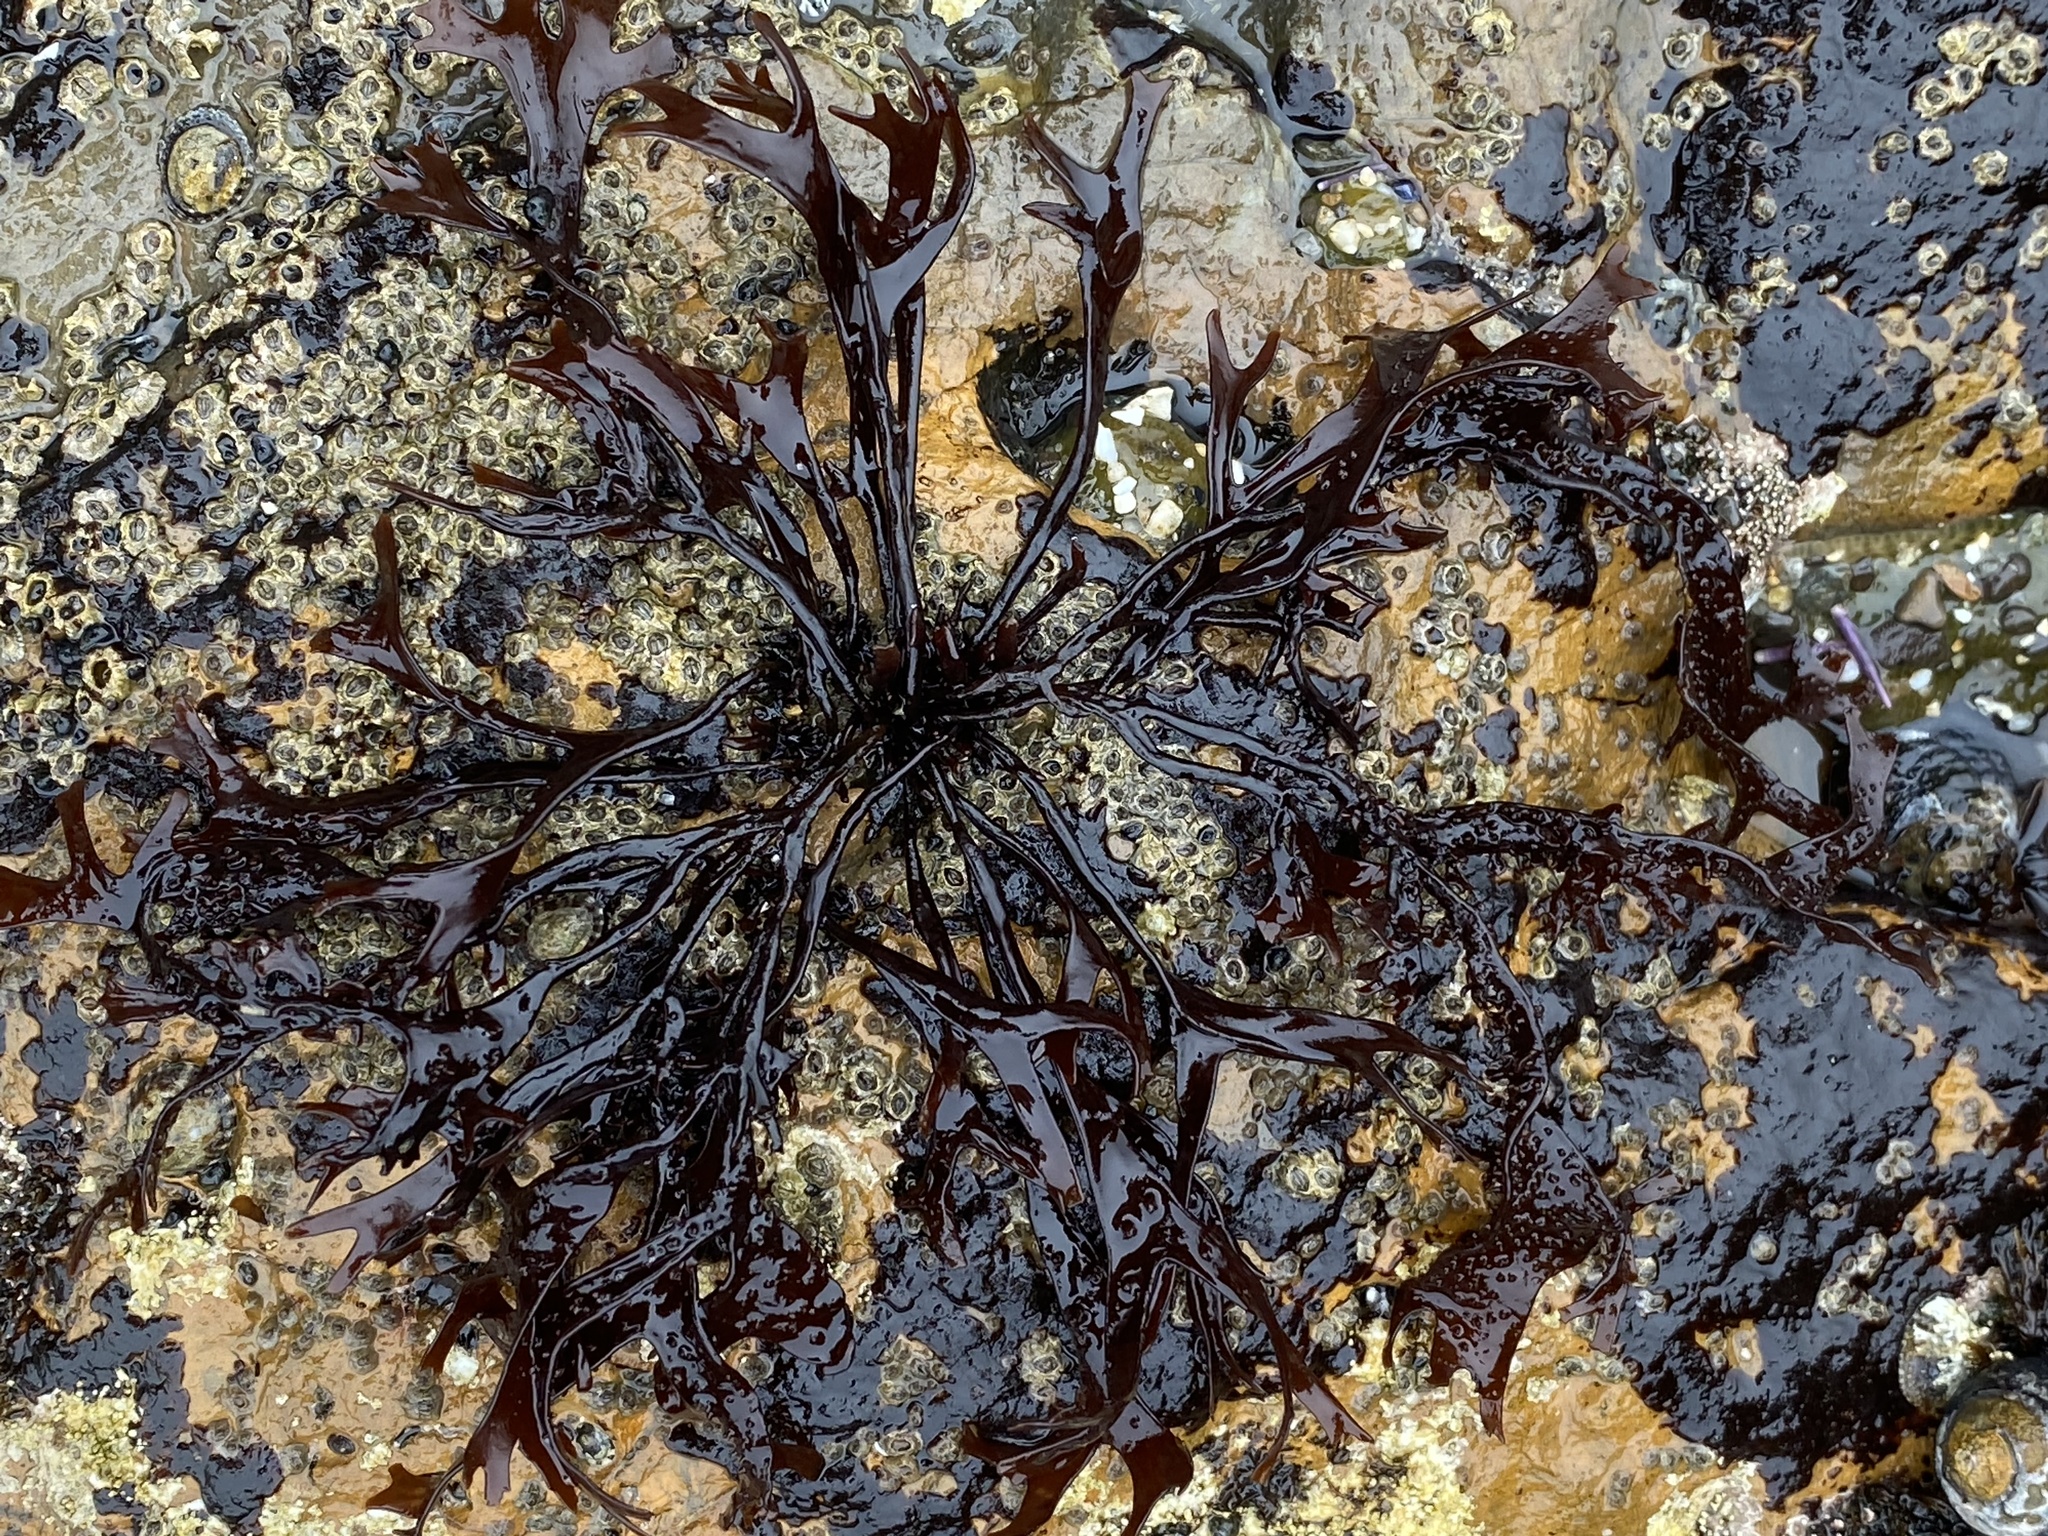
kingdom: Plantae
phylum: Rhodophyta
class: Florideophyceae
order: Gigartinales
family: Phyllophoraceae
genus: Mastocarpus
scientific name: Mastocarpus jardinii
